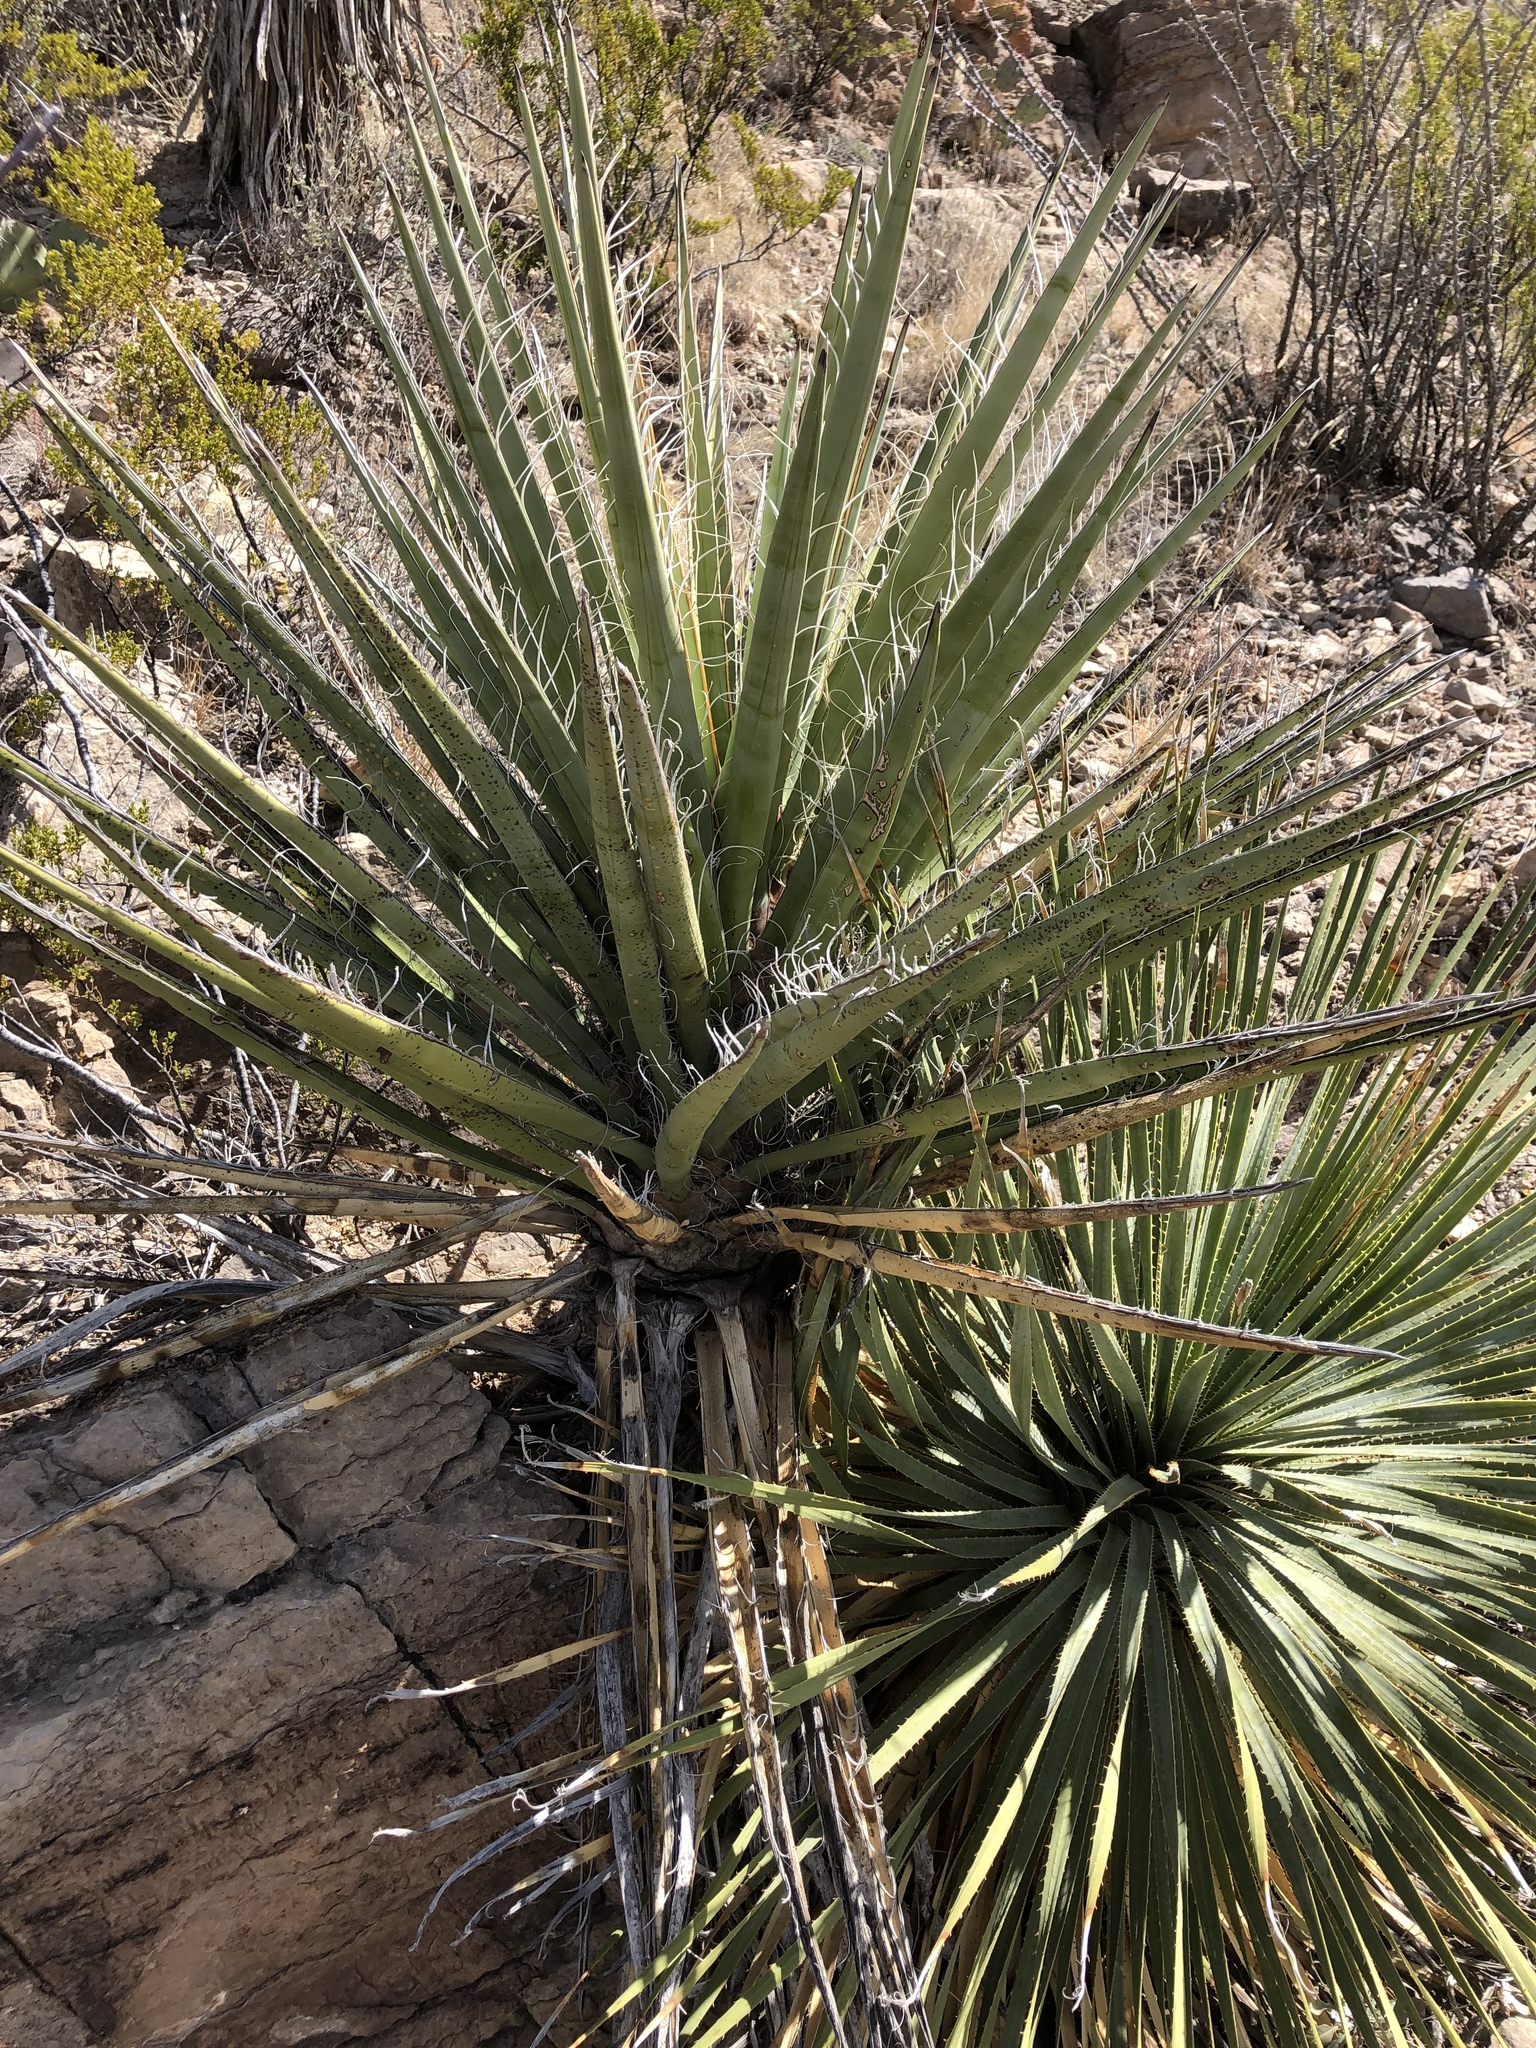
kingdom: Plantae
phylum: Tracheophyta
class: Liliopsida
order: Asparagales
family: Asparagaceae
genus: Yucca
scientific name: Yucca treculiana
